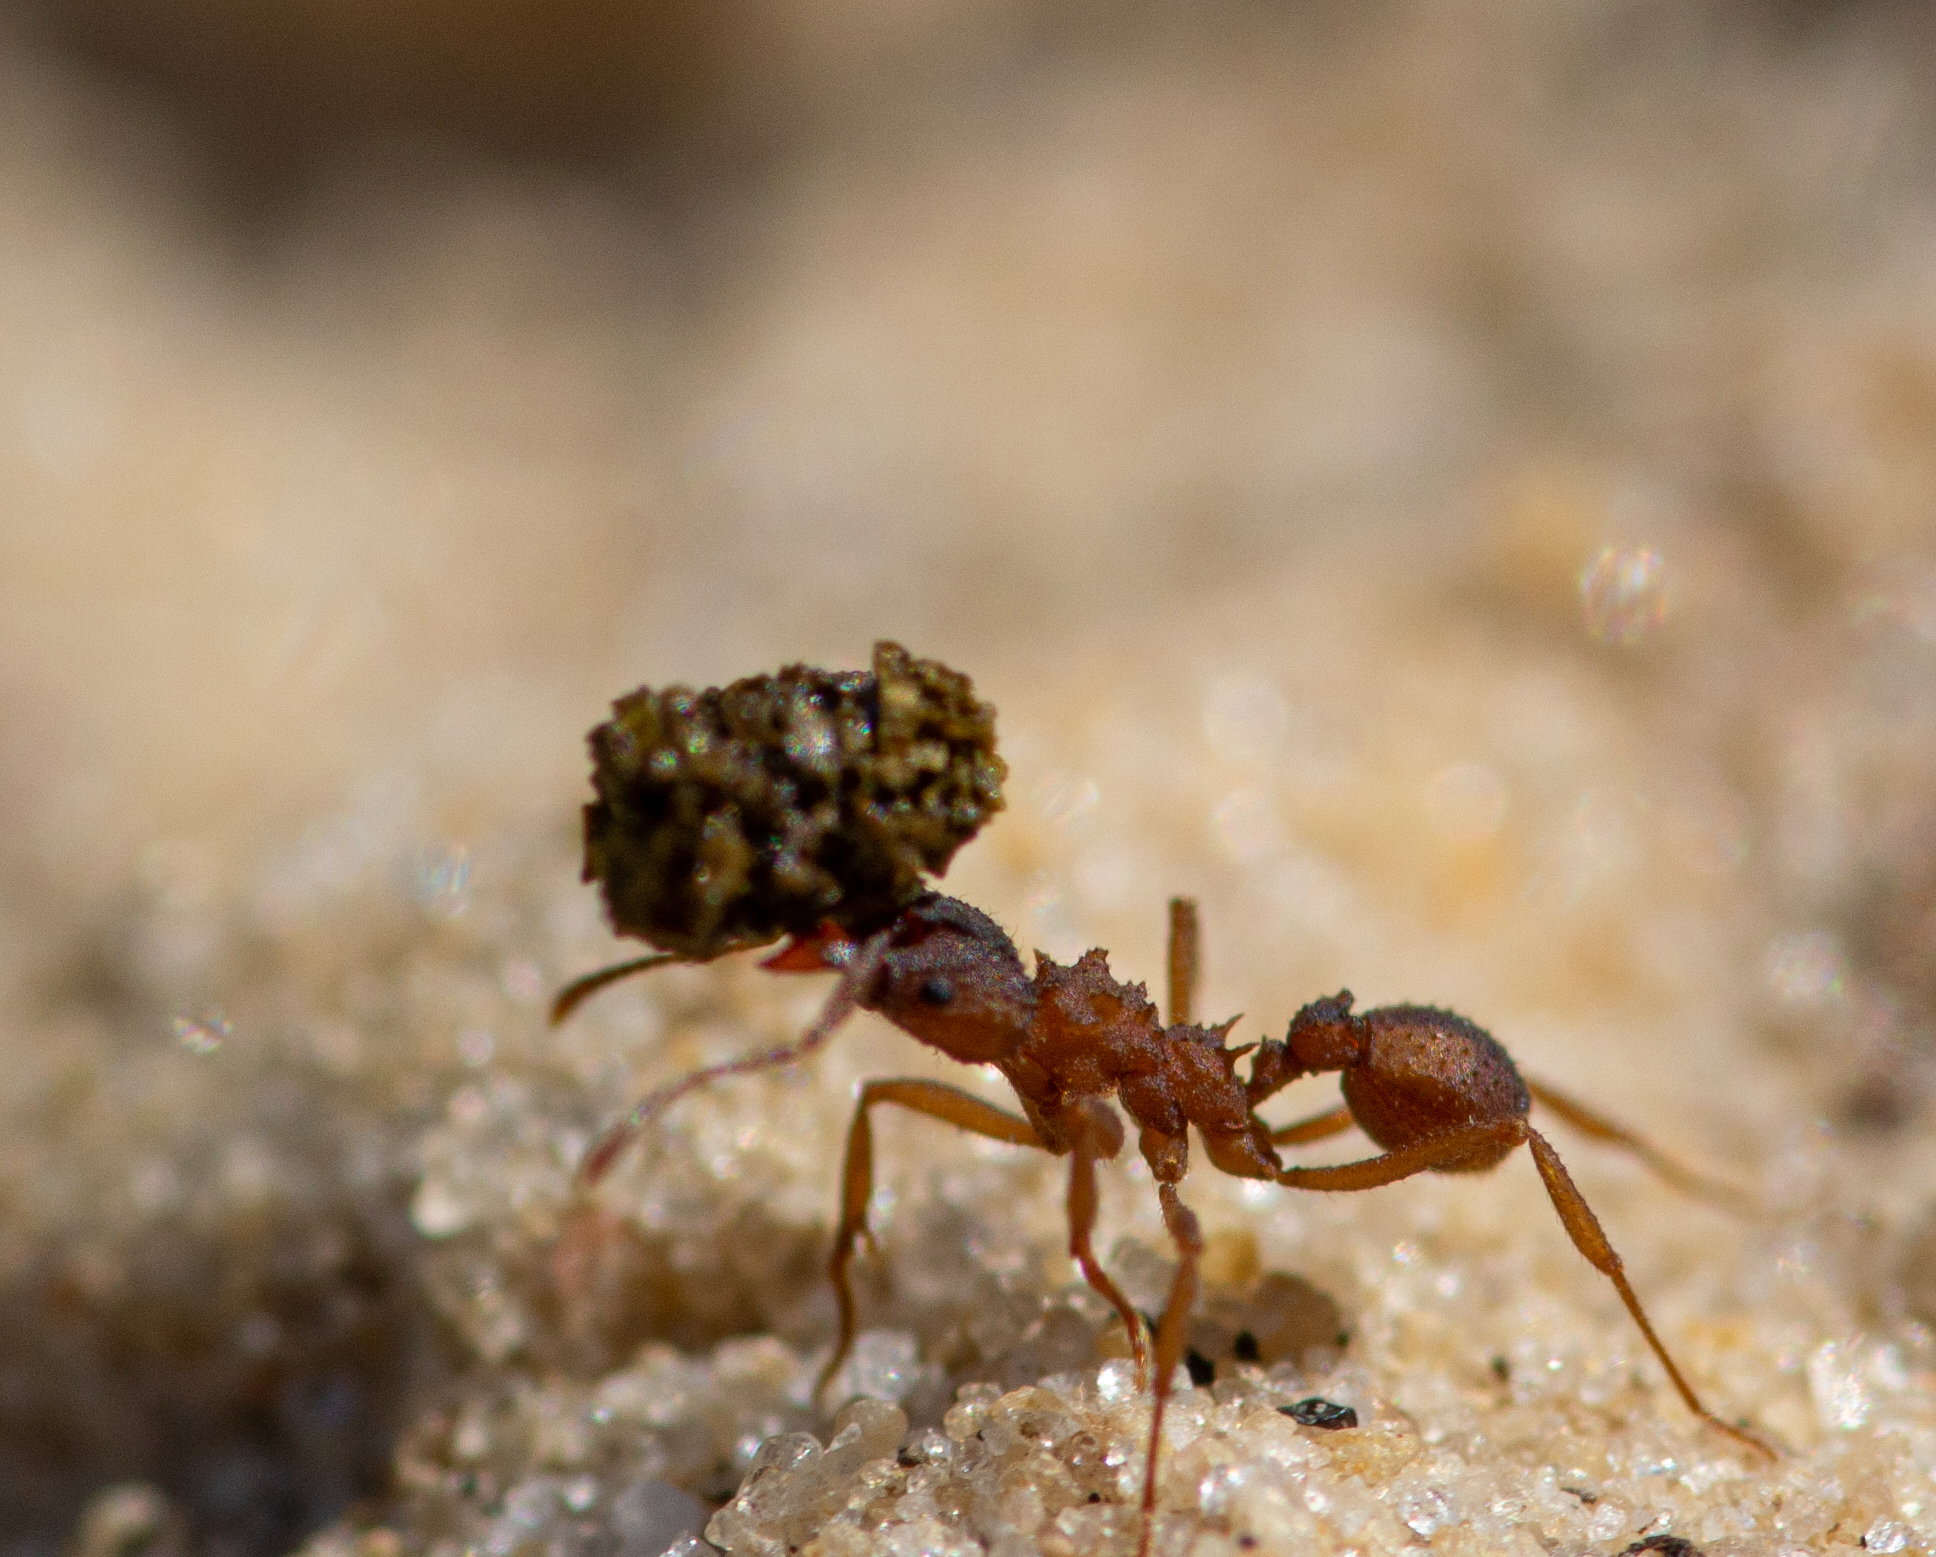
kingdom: Animalia
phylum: Arthropoda
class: Insecta
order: Hymenoptera
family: Formicidae
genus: Trachymyrmex
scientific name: Trachymyrmex septentrionalis
